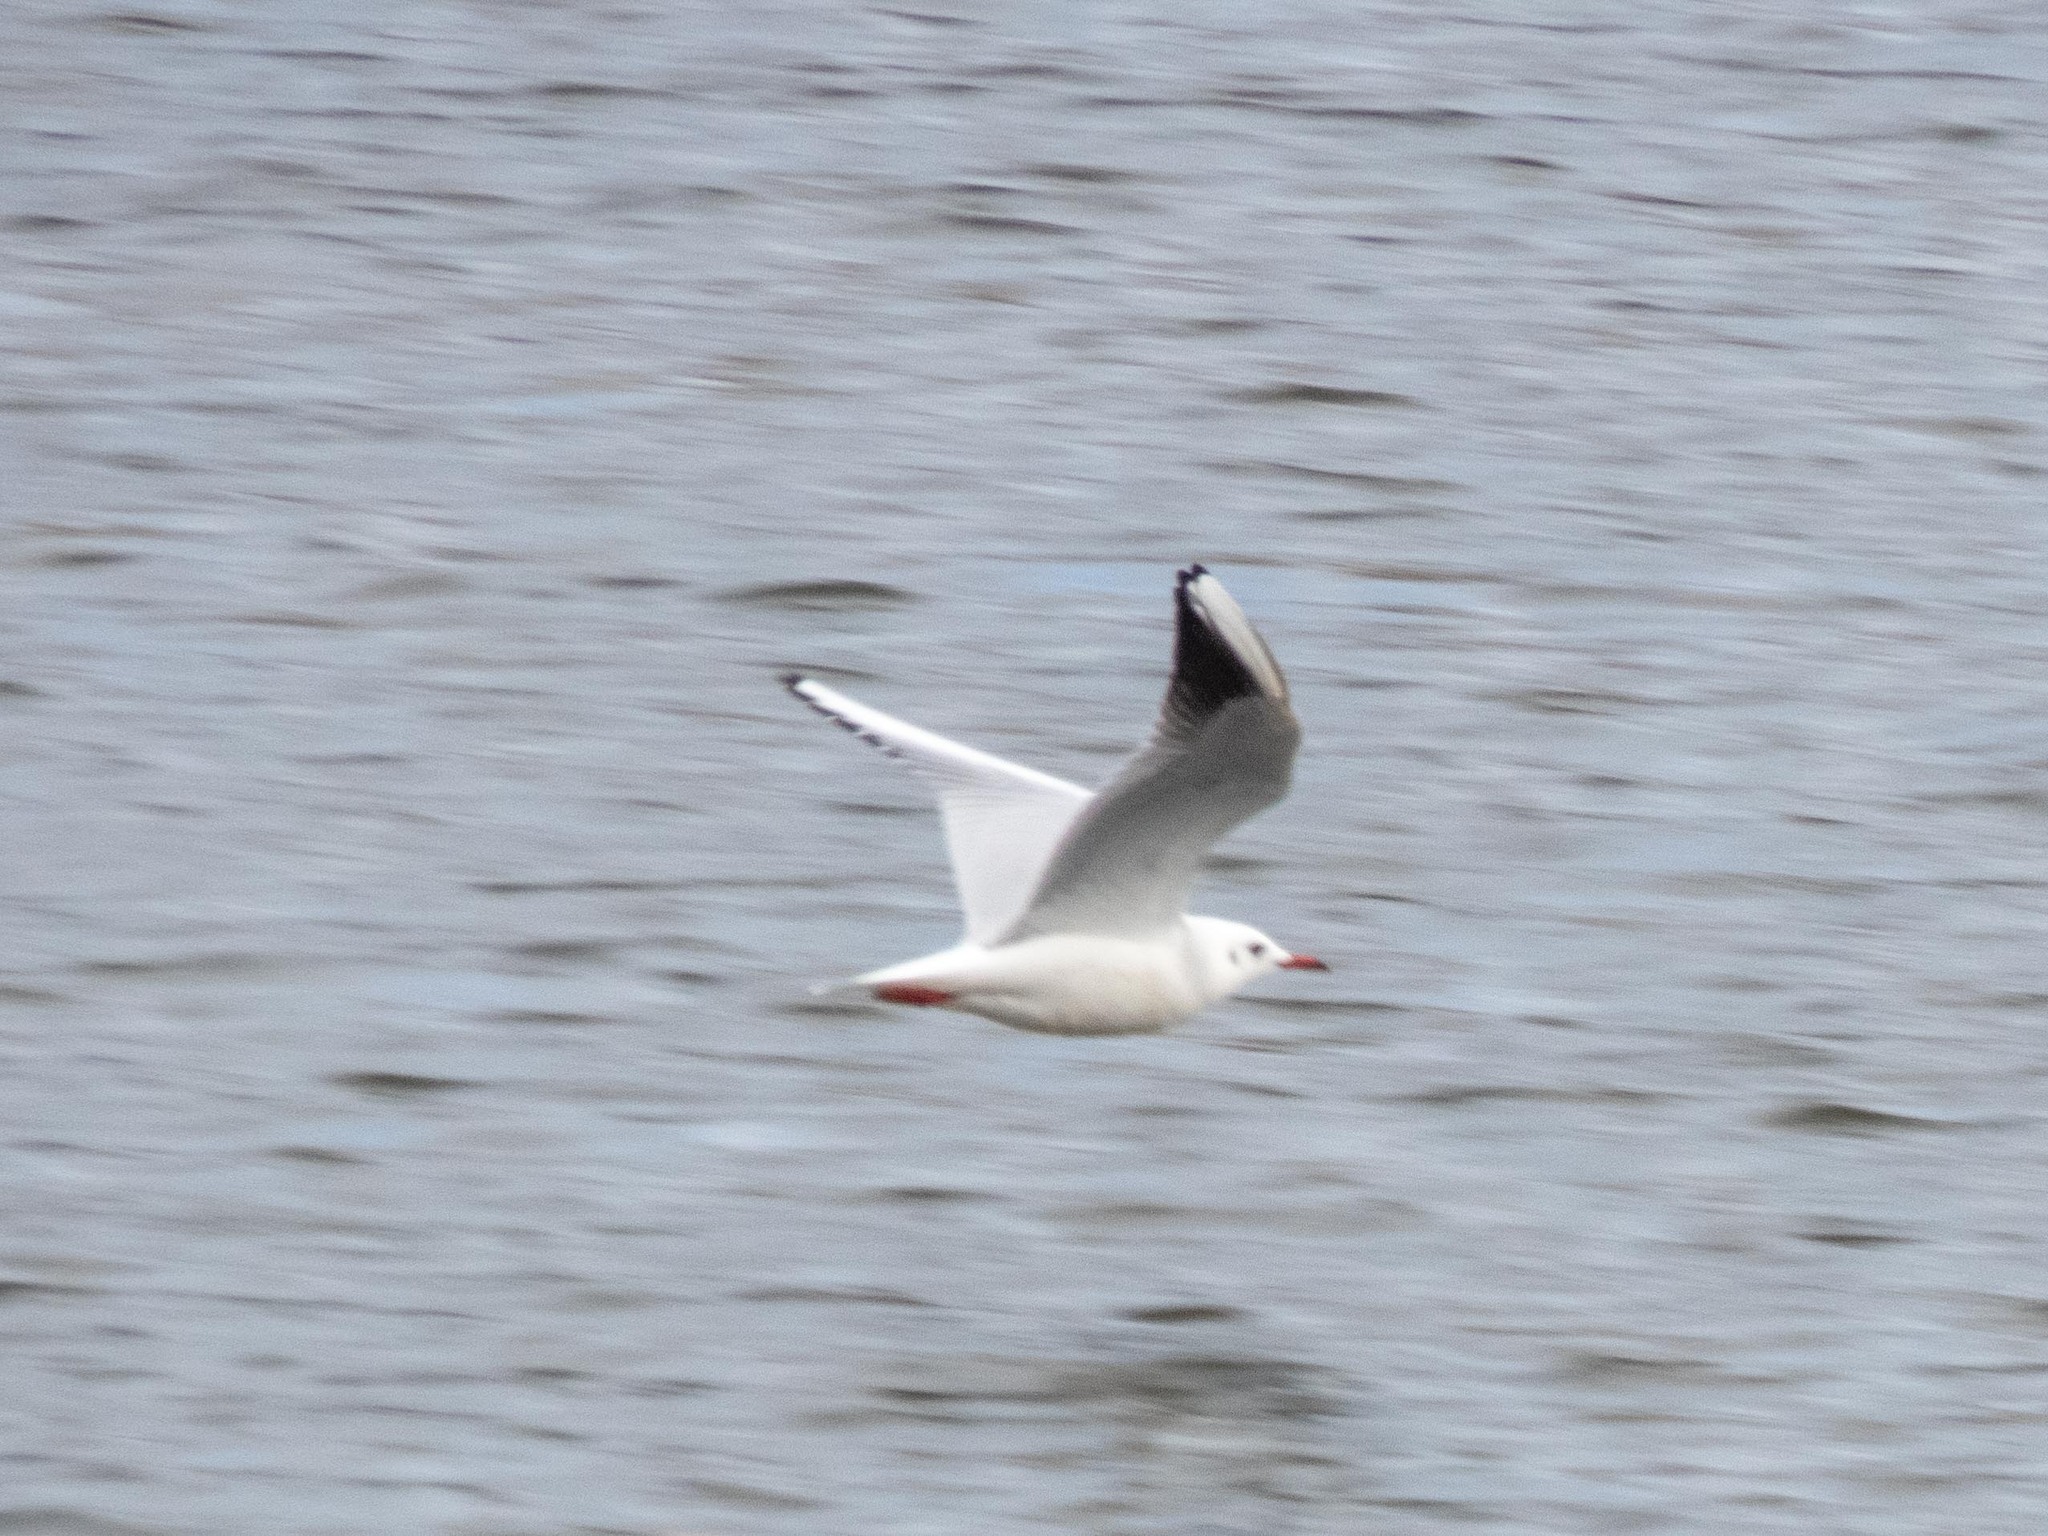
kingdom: Animalia
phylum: Chordata
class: Aves
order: Charadriiformes
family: Laridae
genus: Chroicocephalus
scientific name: Chroicocephalus ridibundus
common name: Black-headed gull
